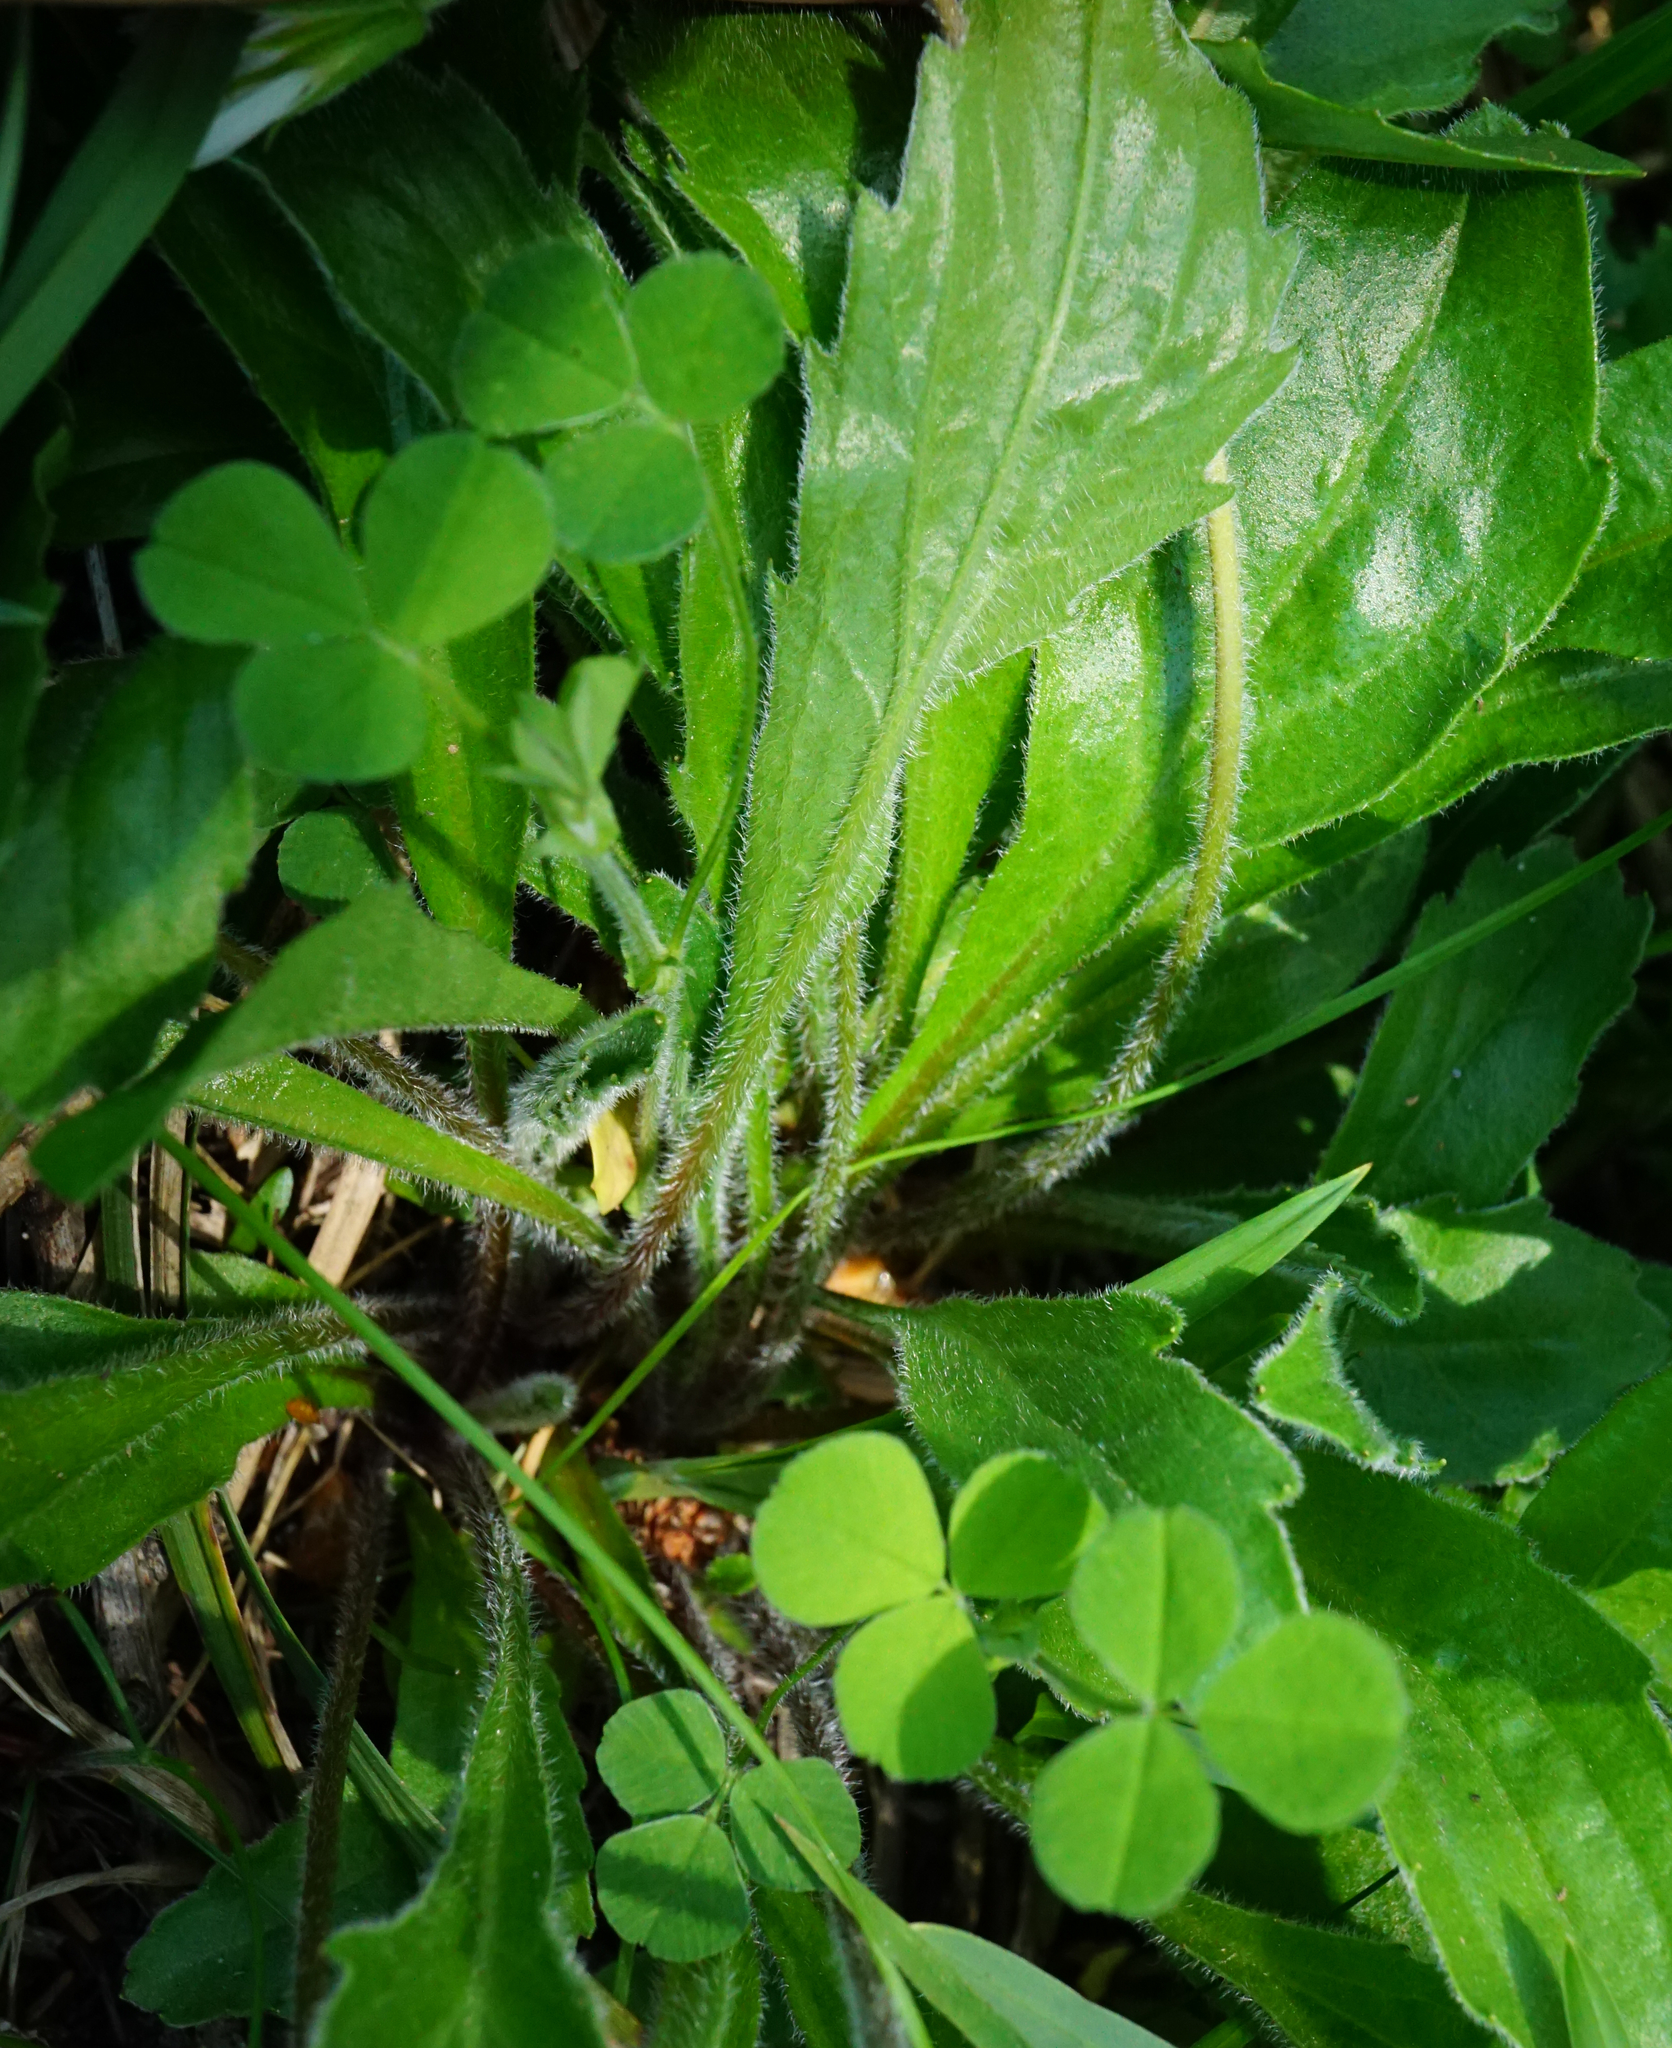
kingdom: Plantae
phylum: Tracheophyta
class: Magnoliopsida
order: Asterales
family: Asteraceae
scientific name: Asteraceae
